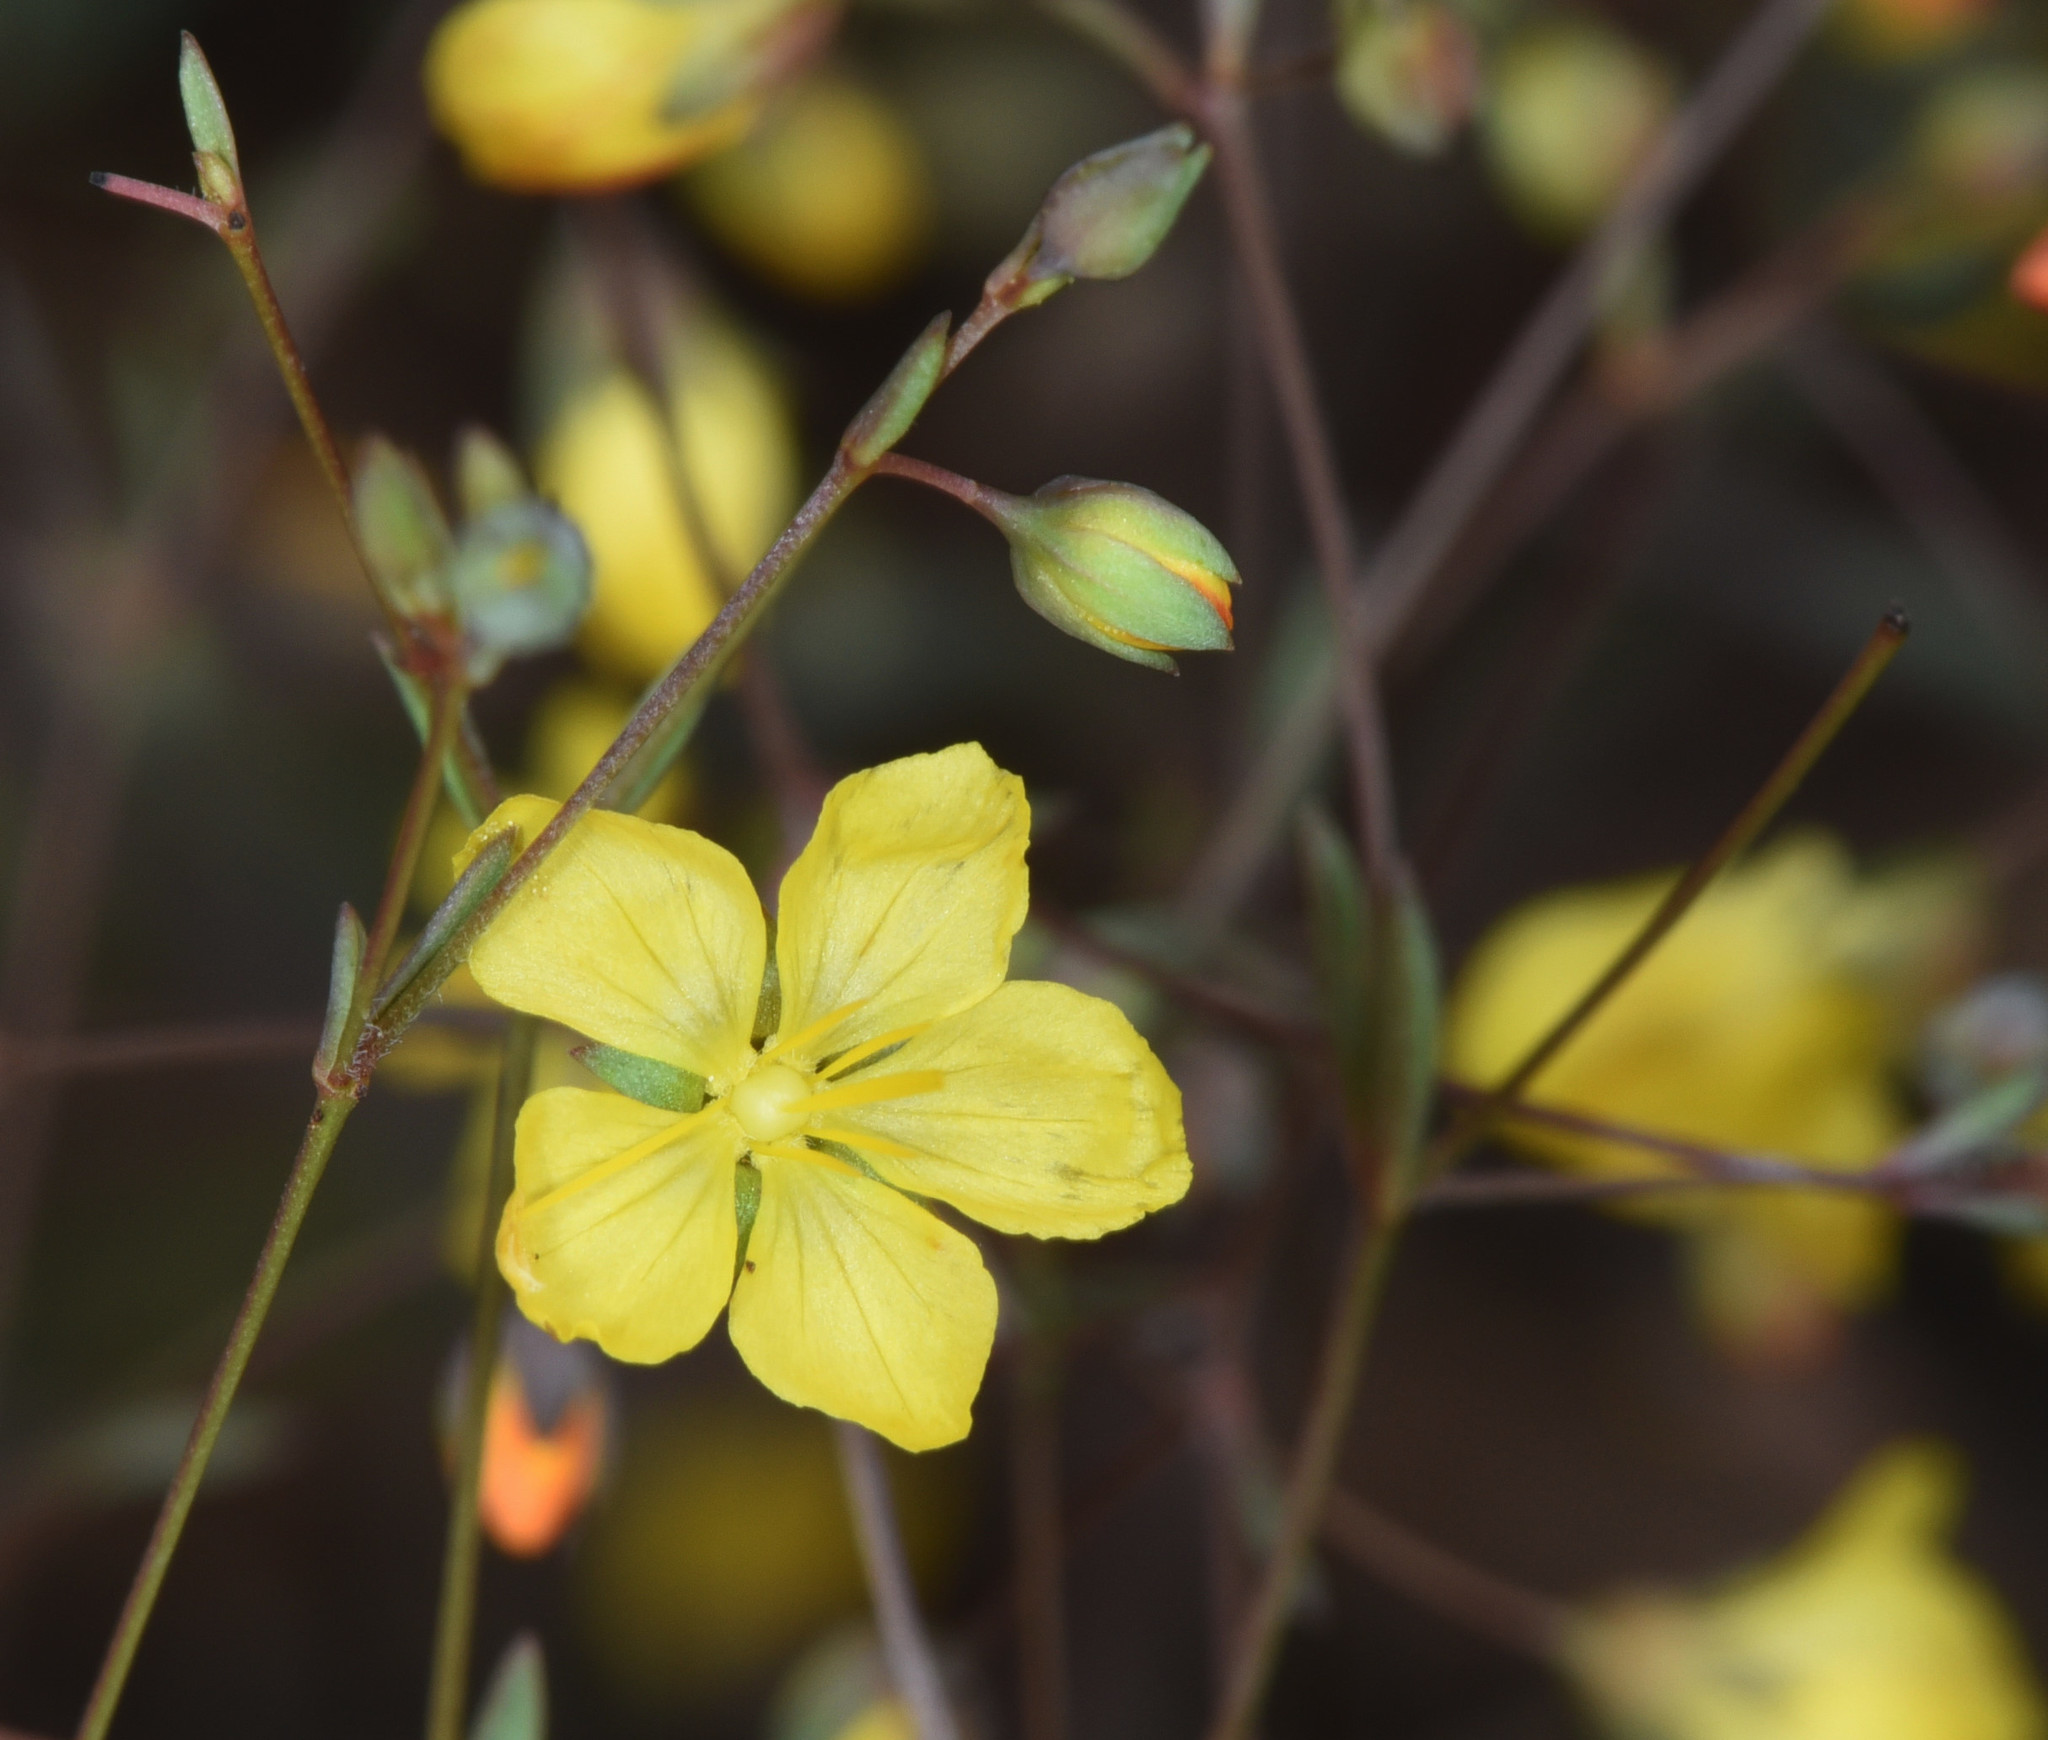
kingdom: Plantae
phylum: Tracheophyta
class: Magnoliopsida
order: Malpighiales
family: Linaceae
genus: Hesperolinon
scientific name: Hesperolinon clevelandii
